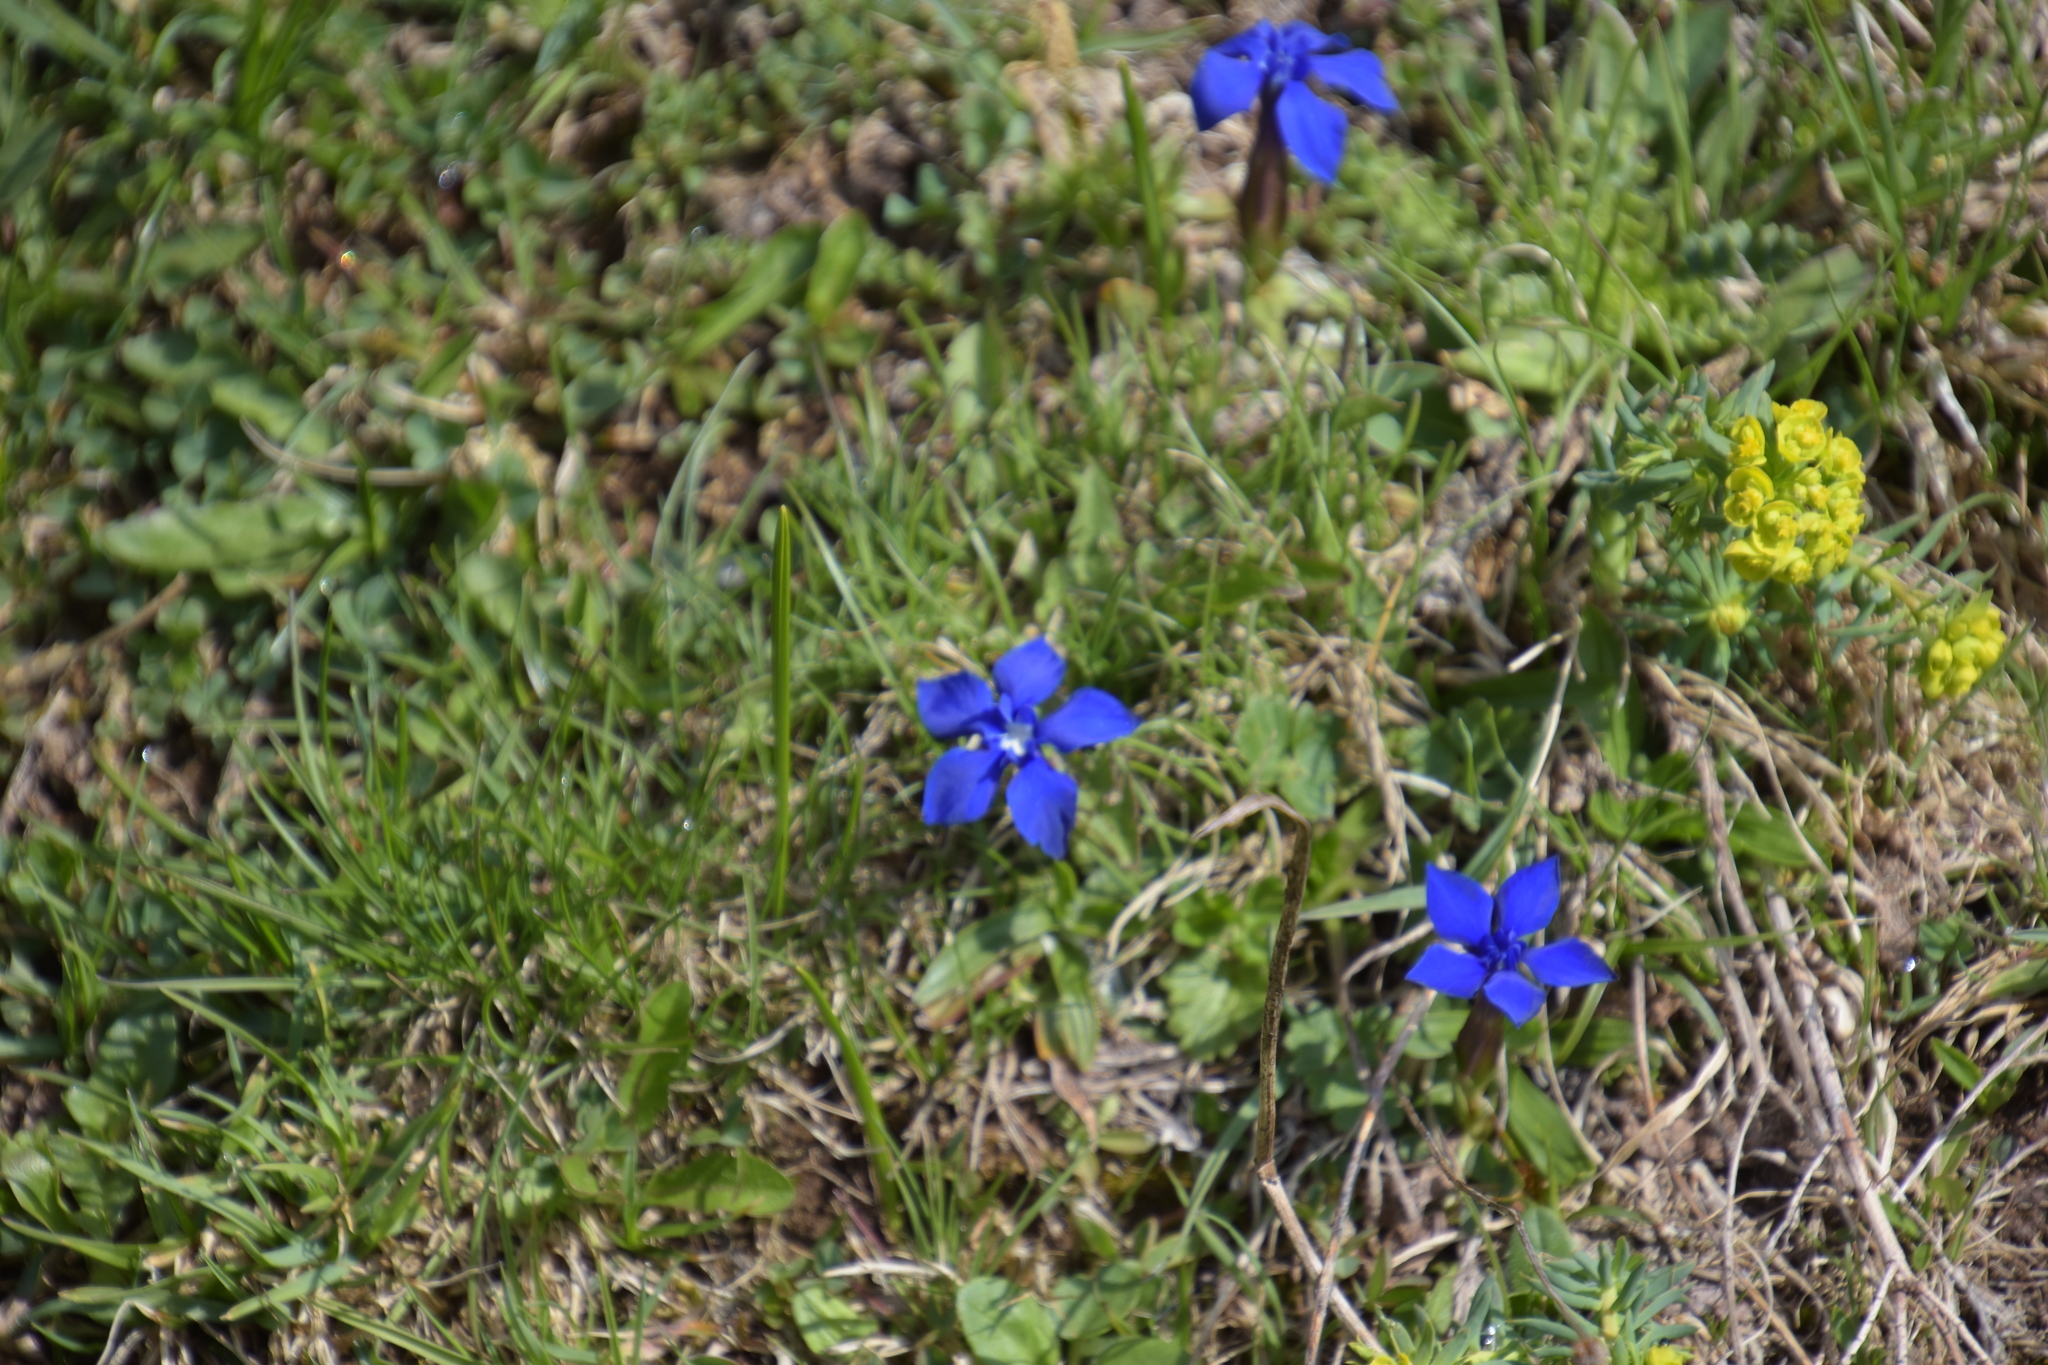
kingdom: Plantae
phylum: Tracheophyta
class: Magnoliopsida
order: Gentianales
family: Gentianaceae
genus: Gentiana
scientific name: Gentiana verna
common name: Spring gentian
